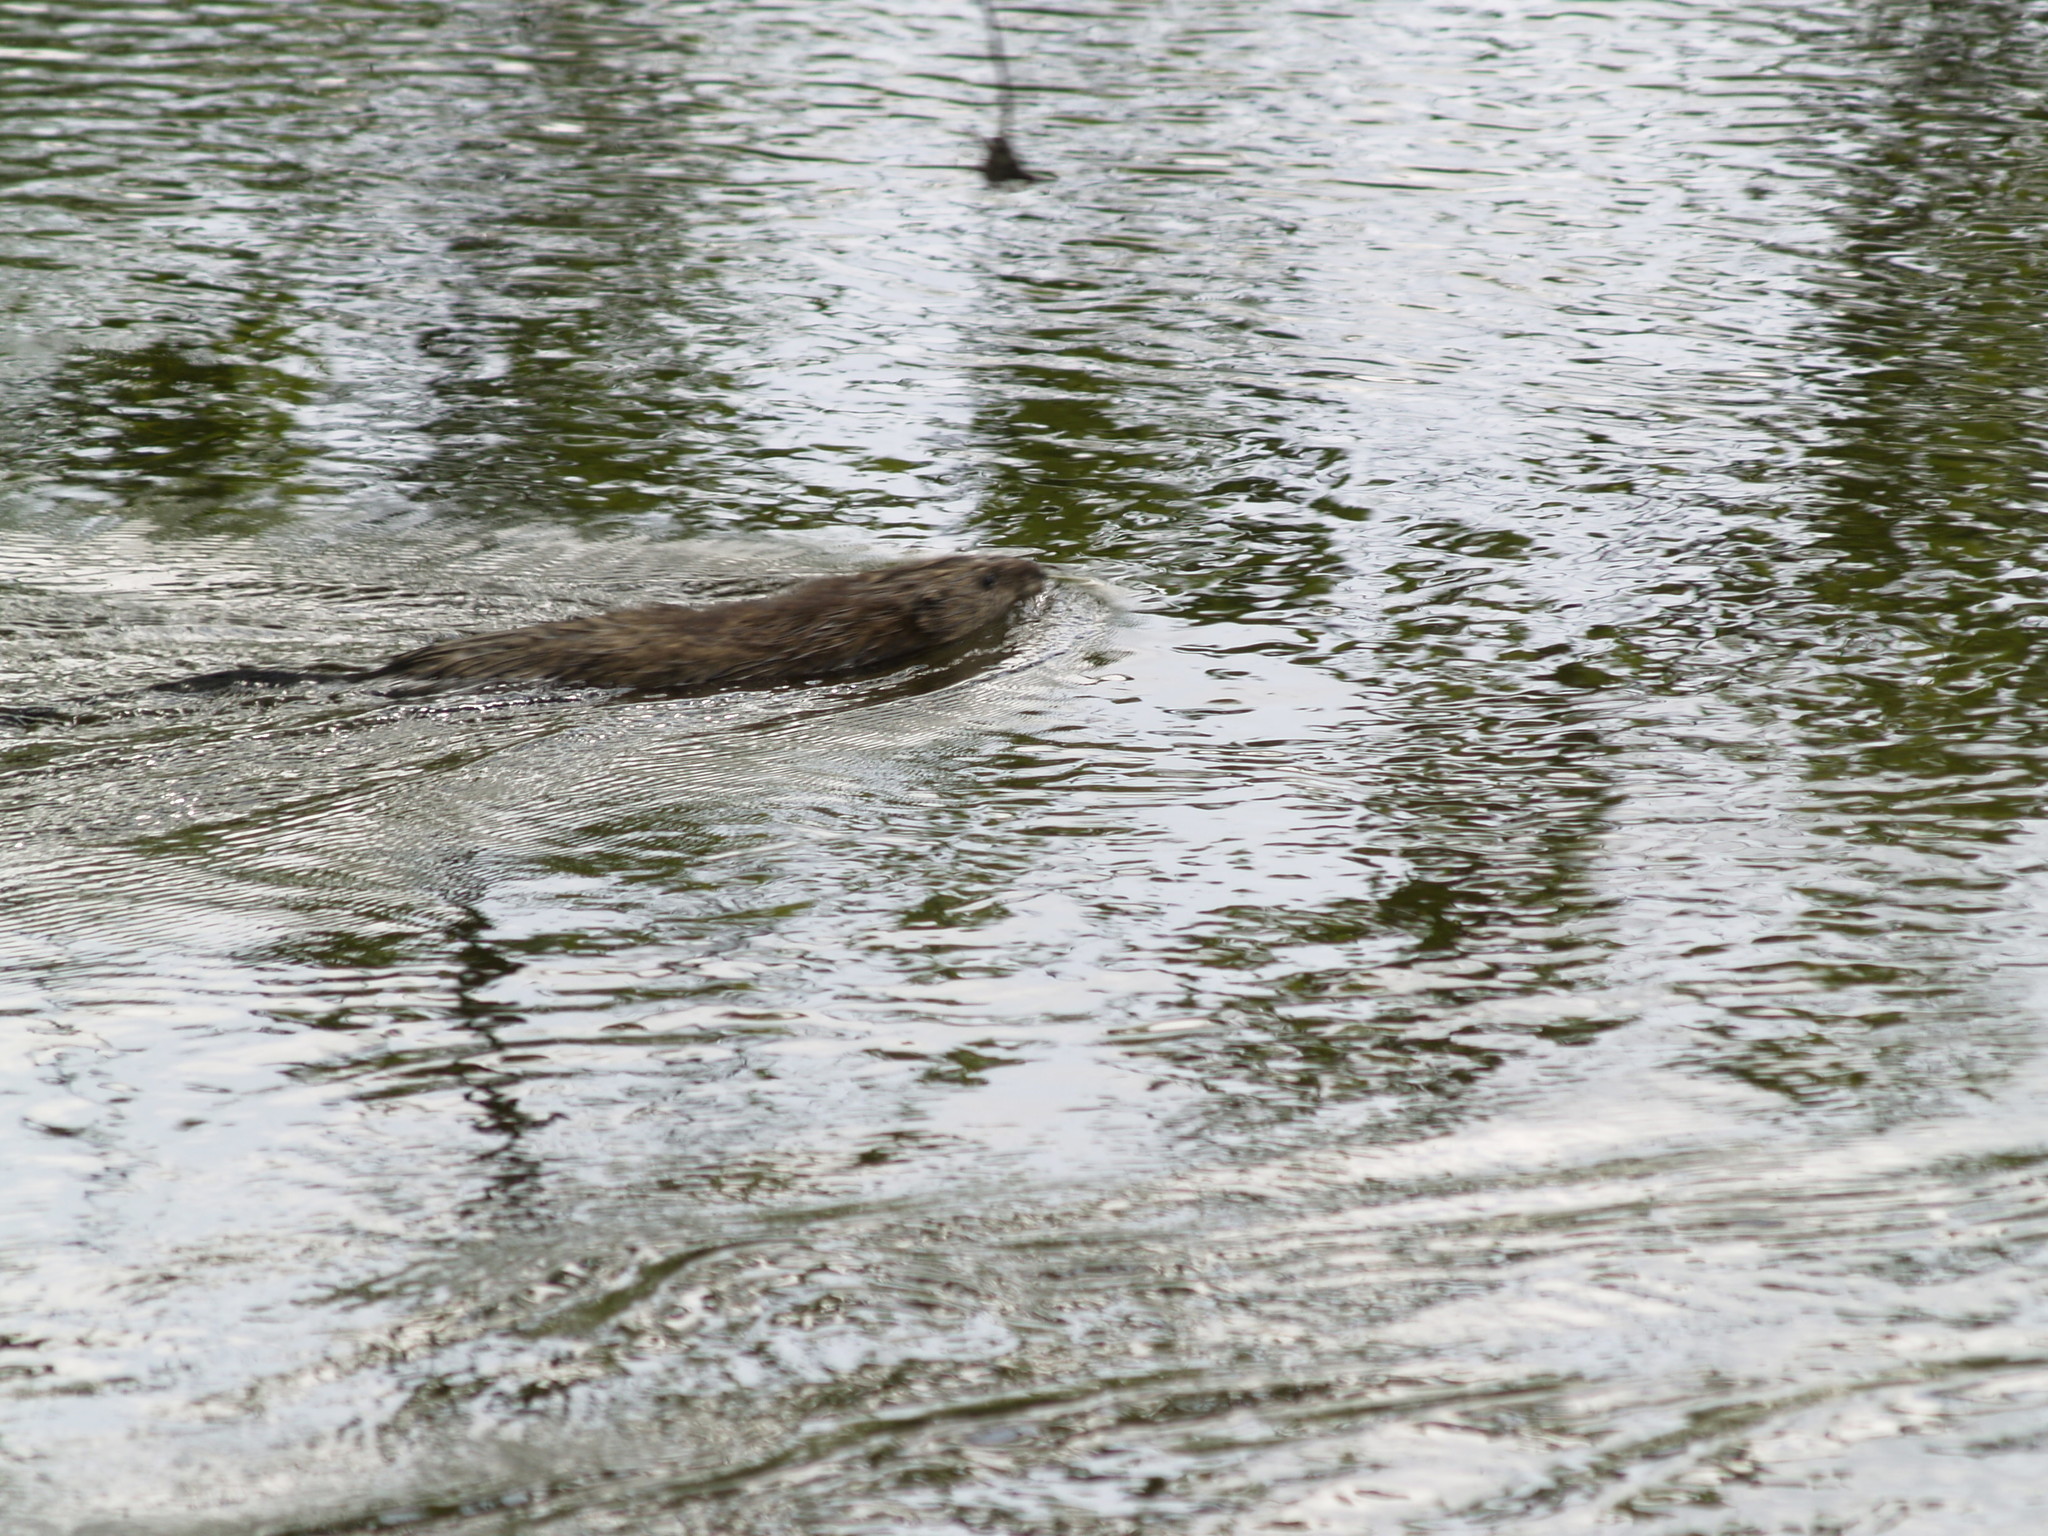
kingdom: Animalia
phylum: Chordata
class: Mammalia
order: Rodentia
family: Cricetidae
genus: Ondatra
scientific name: Ondatra zibethicus
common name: Muskrat
